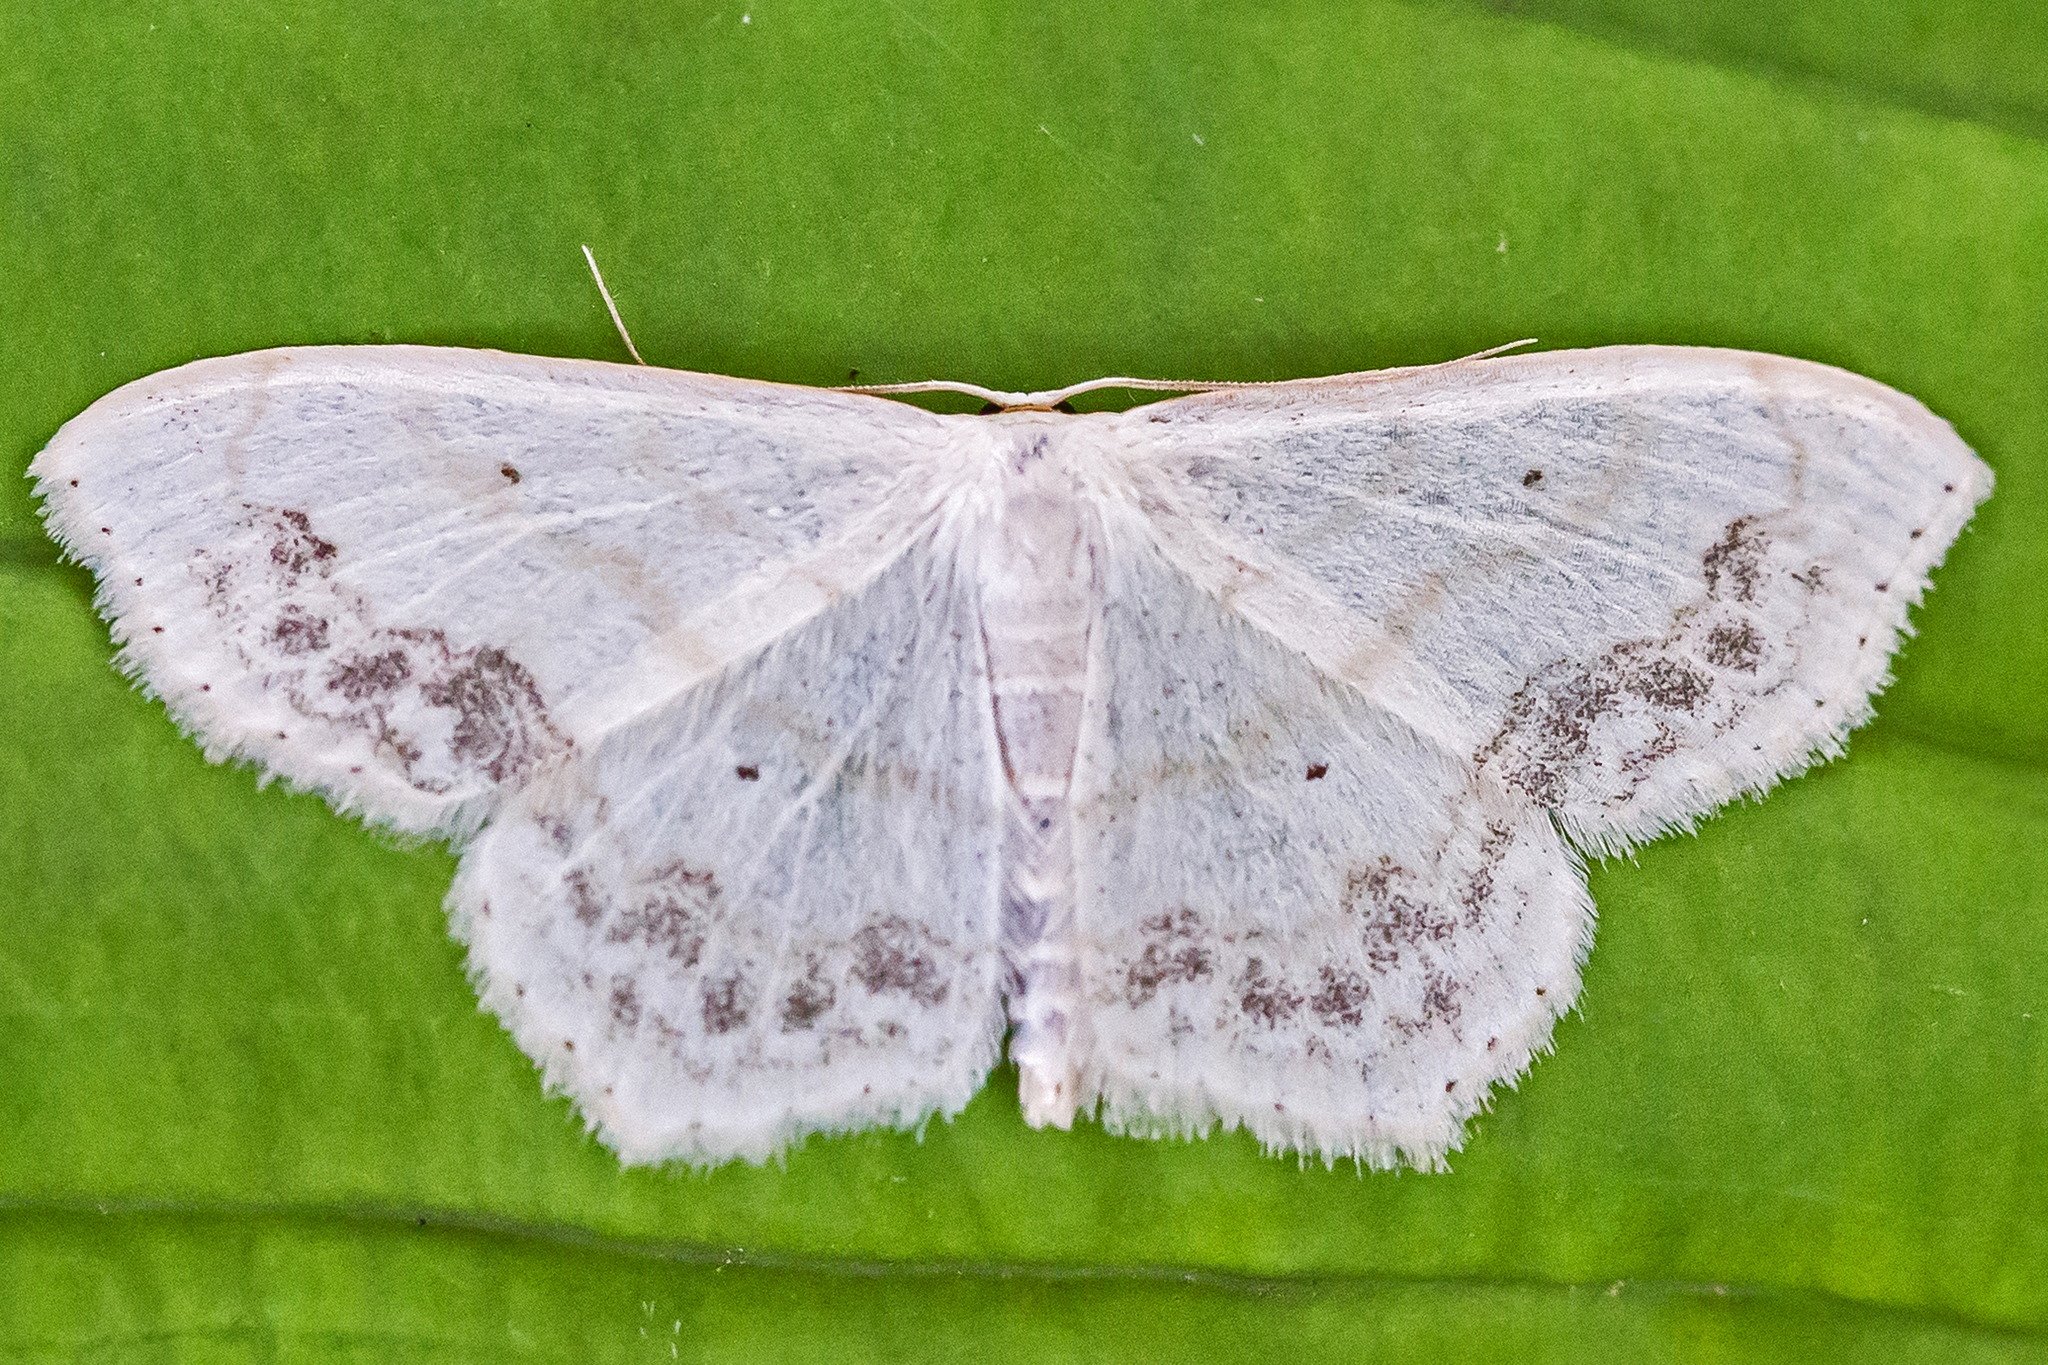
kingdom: Animalia
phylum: Arthropoda
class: Insecta
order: Lepidoptera
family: Geometridae
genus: Scopula
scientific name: Scopula limboundata
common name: Large lace border
